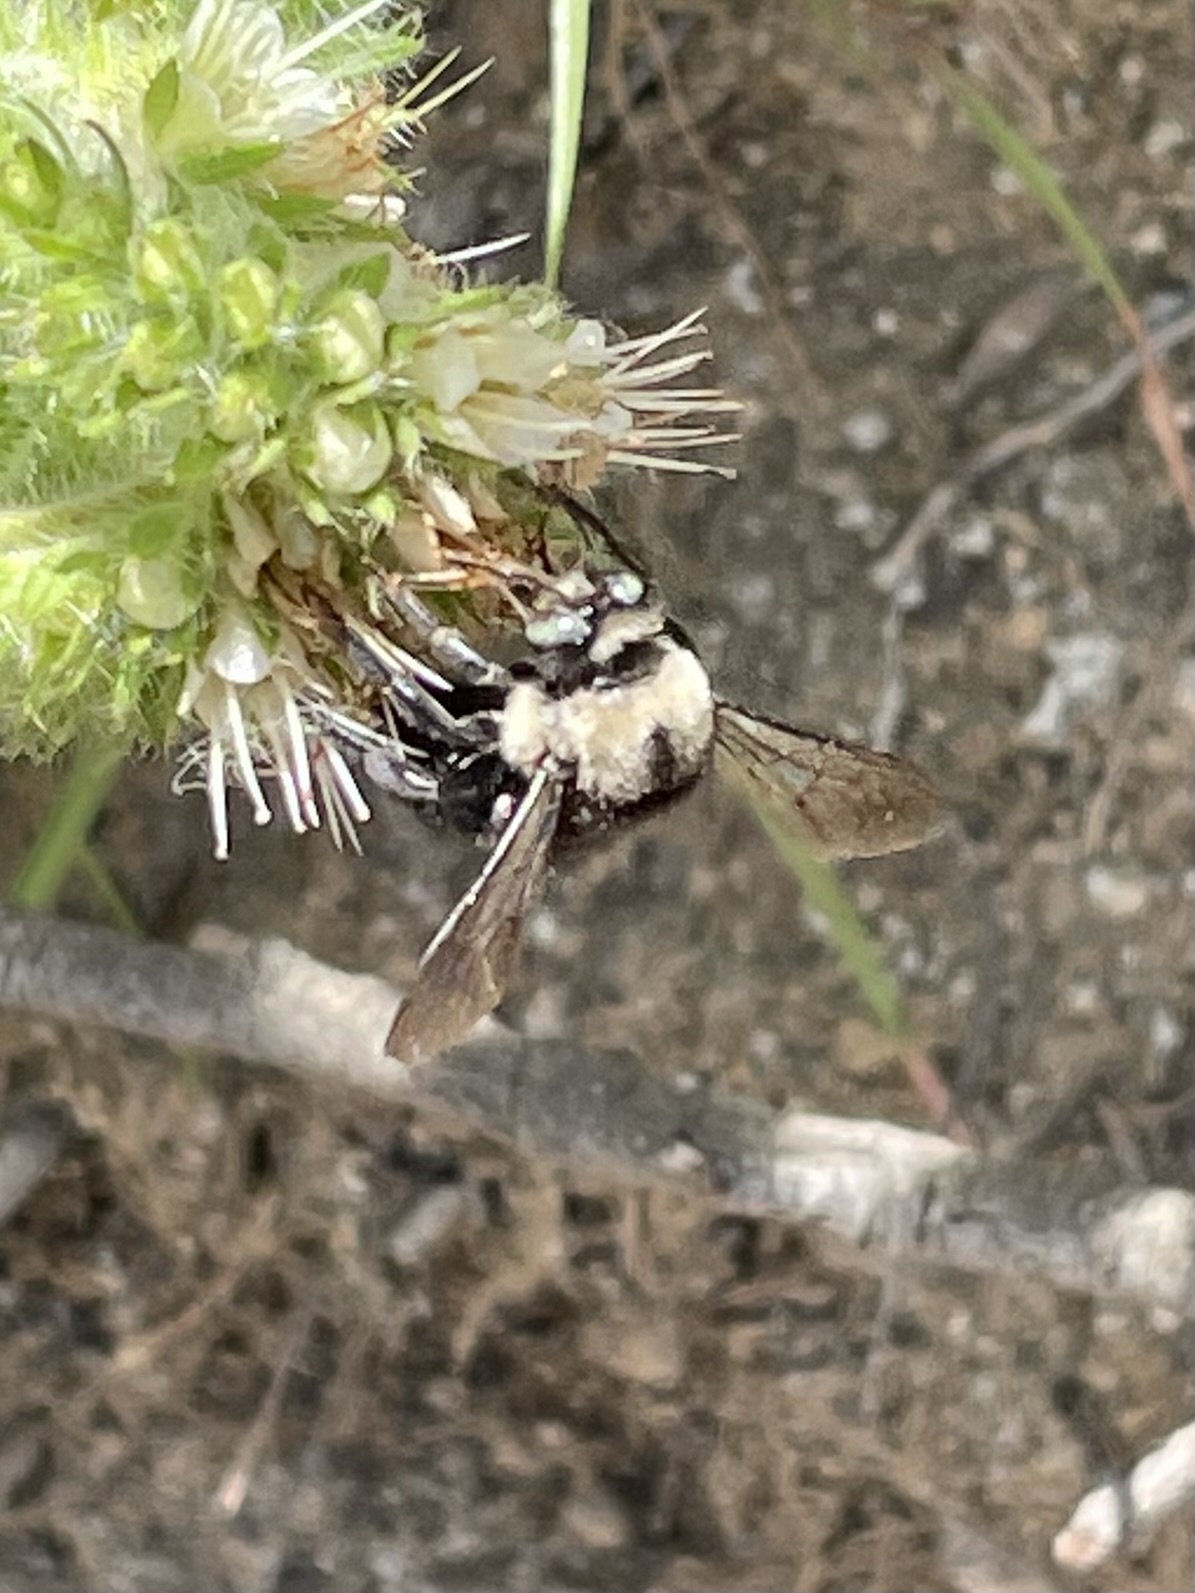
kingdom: Animalia
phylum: Arthropoda
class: Insecta
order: Hymenoptera
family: Apidae
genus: Xylocopa
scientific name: Xylocopa tabaniformis
